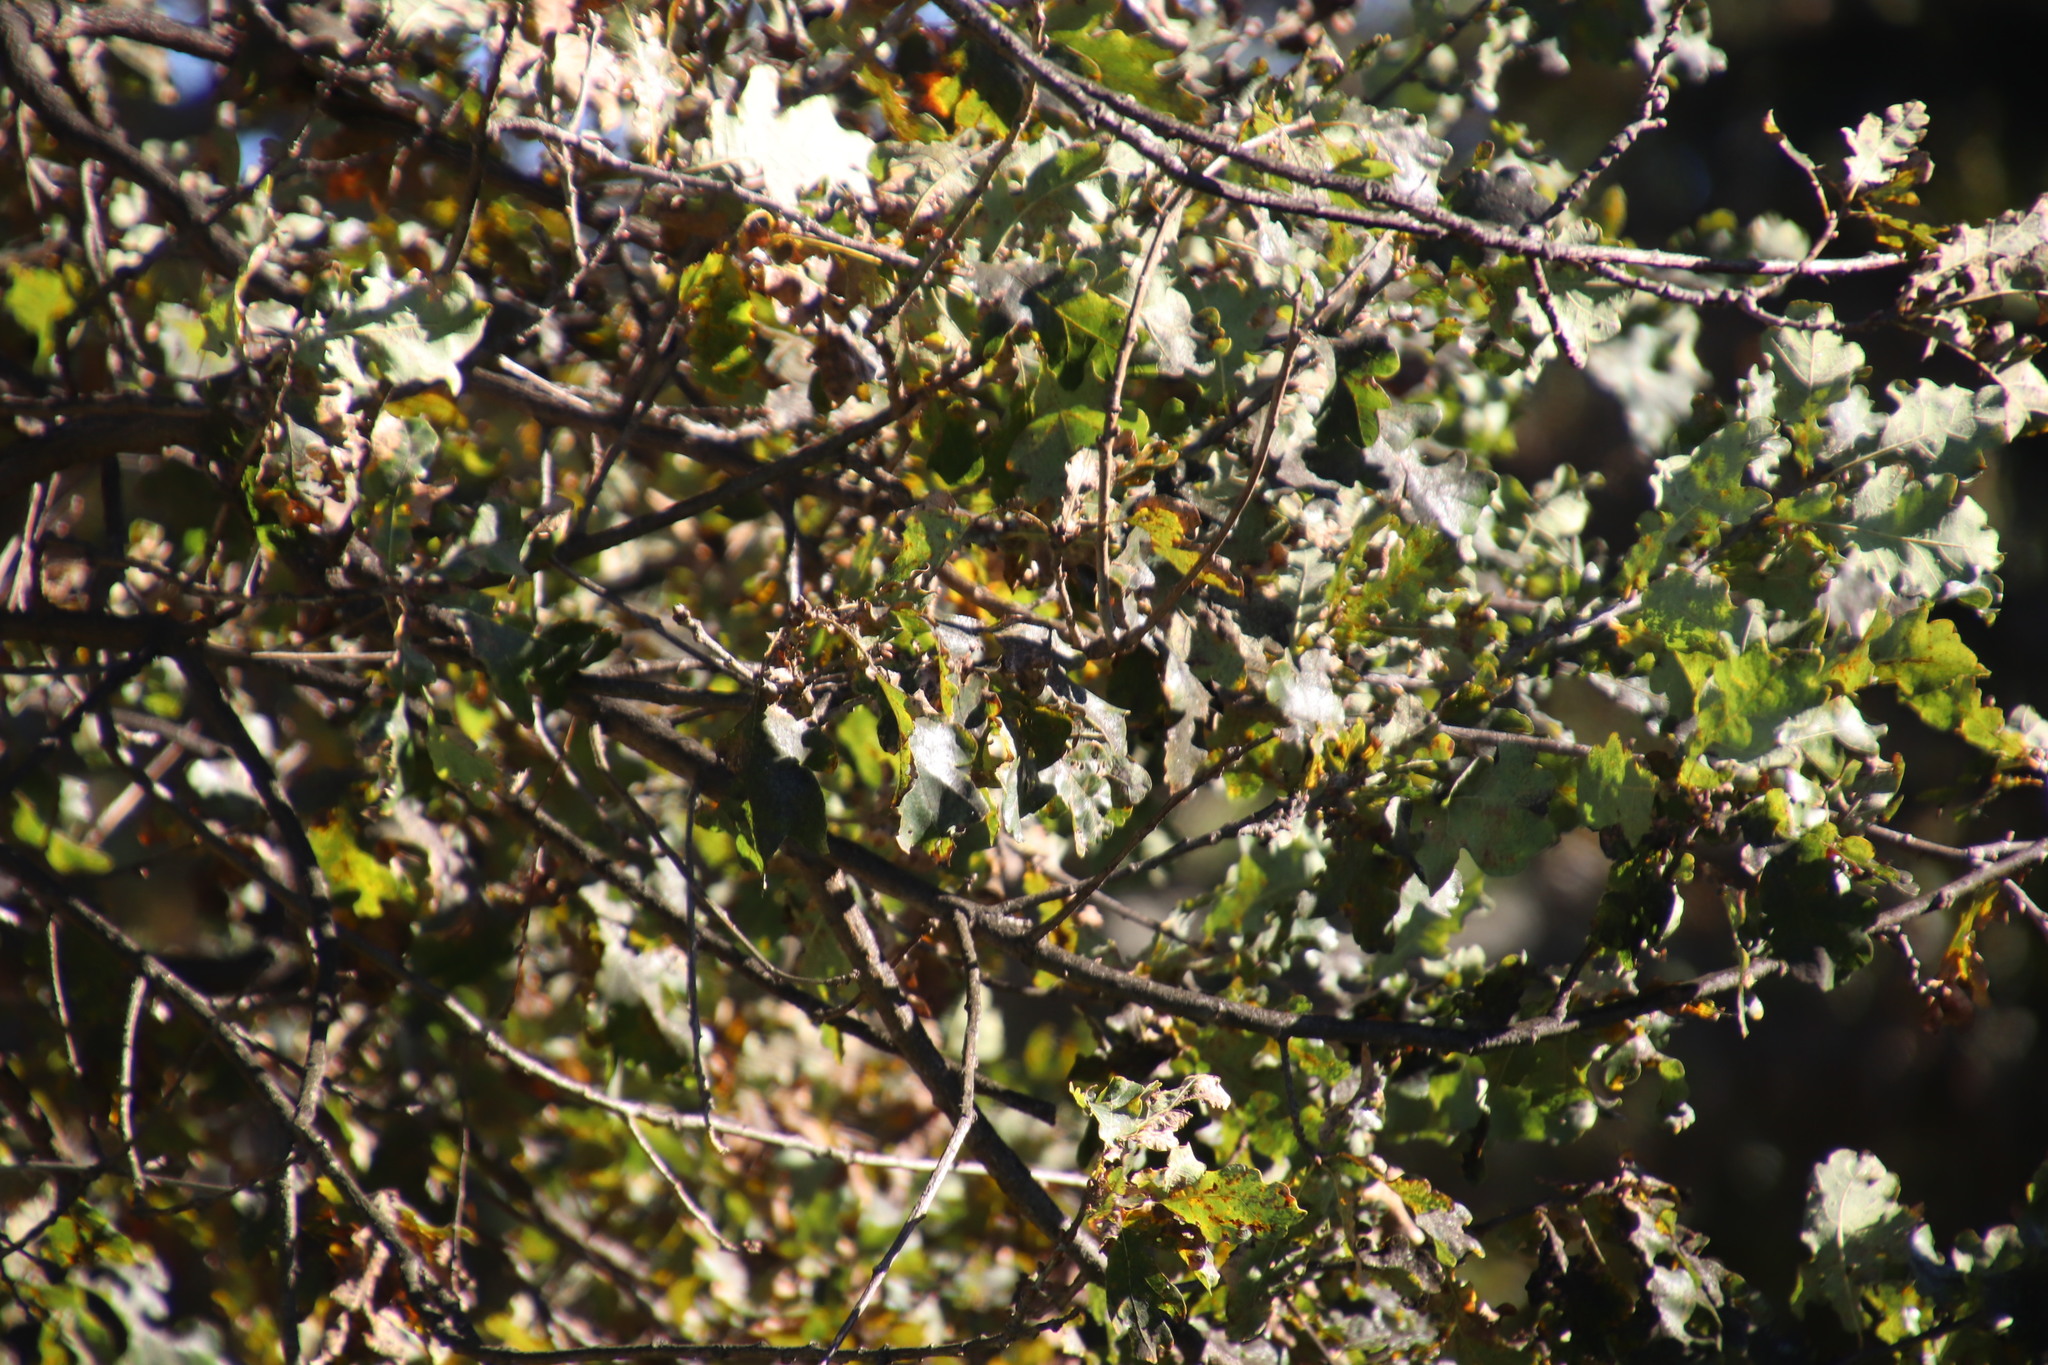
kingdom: Plantae
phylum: Tracheophyta
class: Magnoliopsida
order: Fagales
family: Fagaceae
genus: Quercus
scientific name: Quercus robur
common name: Pedunculate oak
